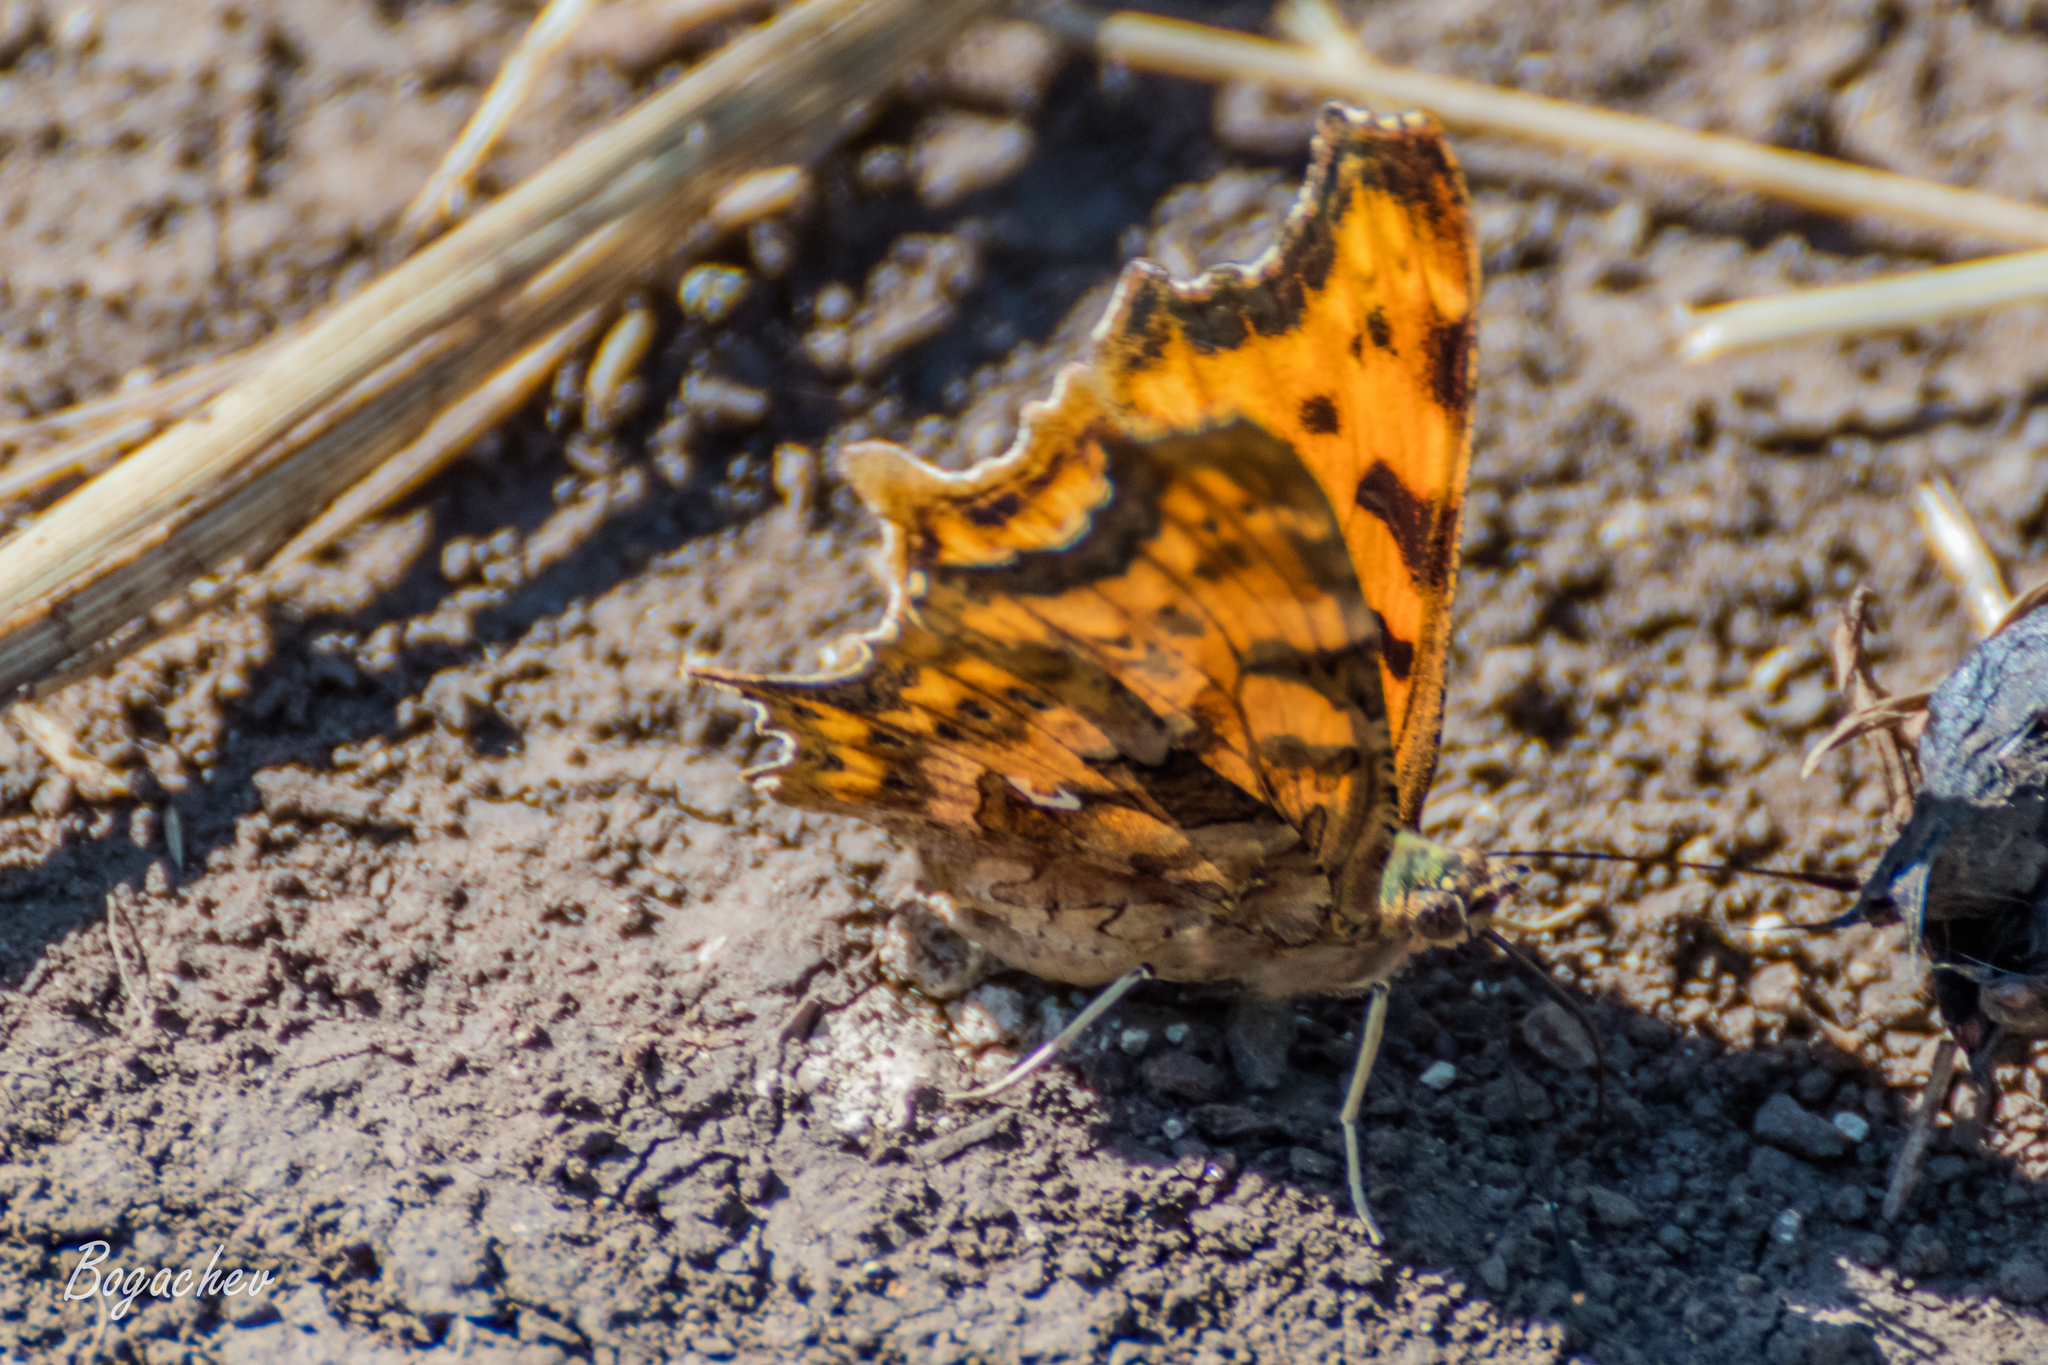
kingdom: Animalia
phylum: Arthropoda
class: Insecta
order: Lepidoptera
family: Nymphalidae
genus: Polygonia
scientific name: Polygonia c-album
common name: Comma
